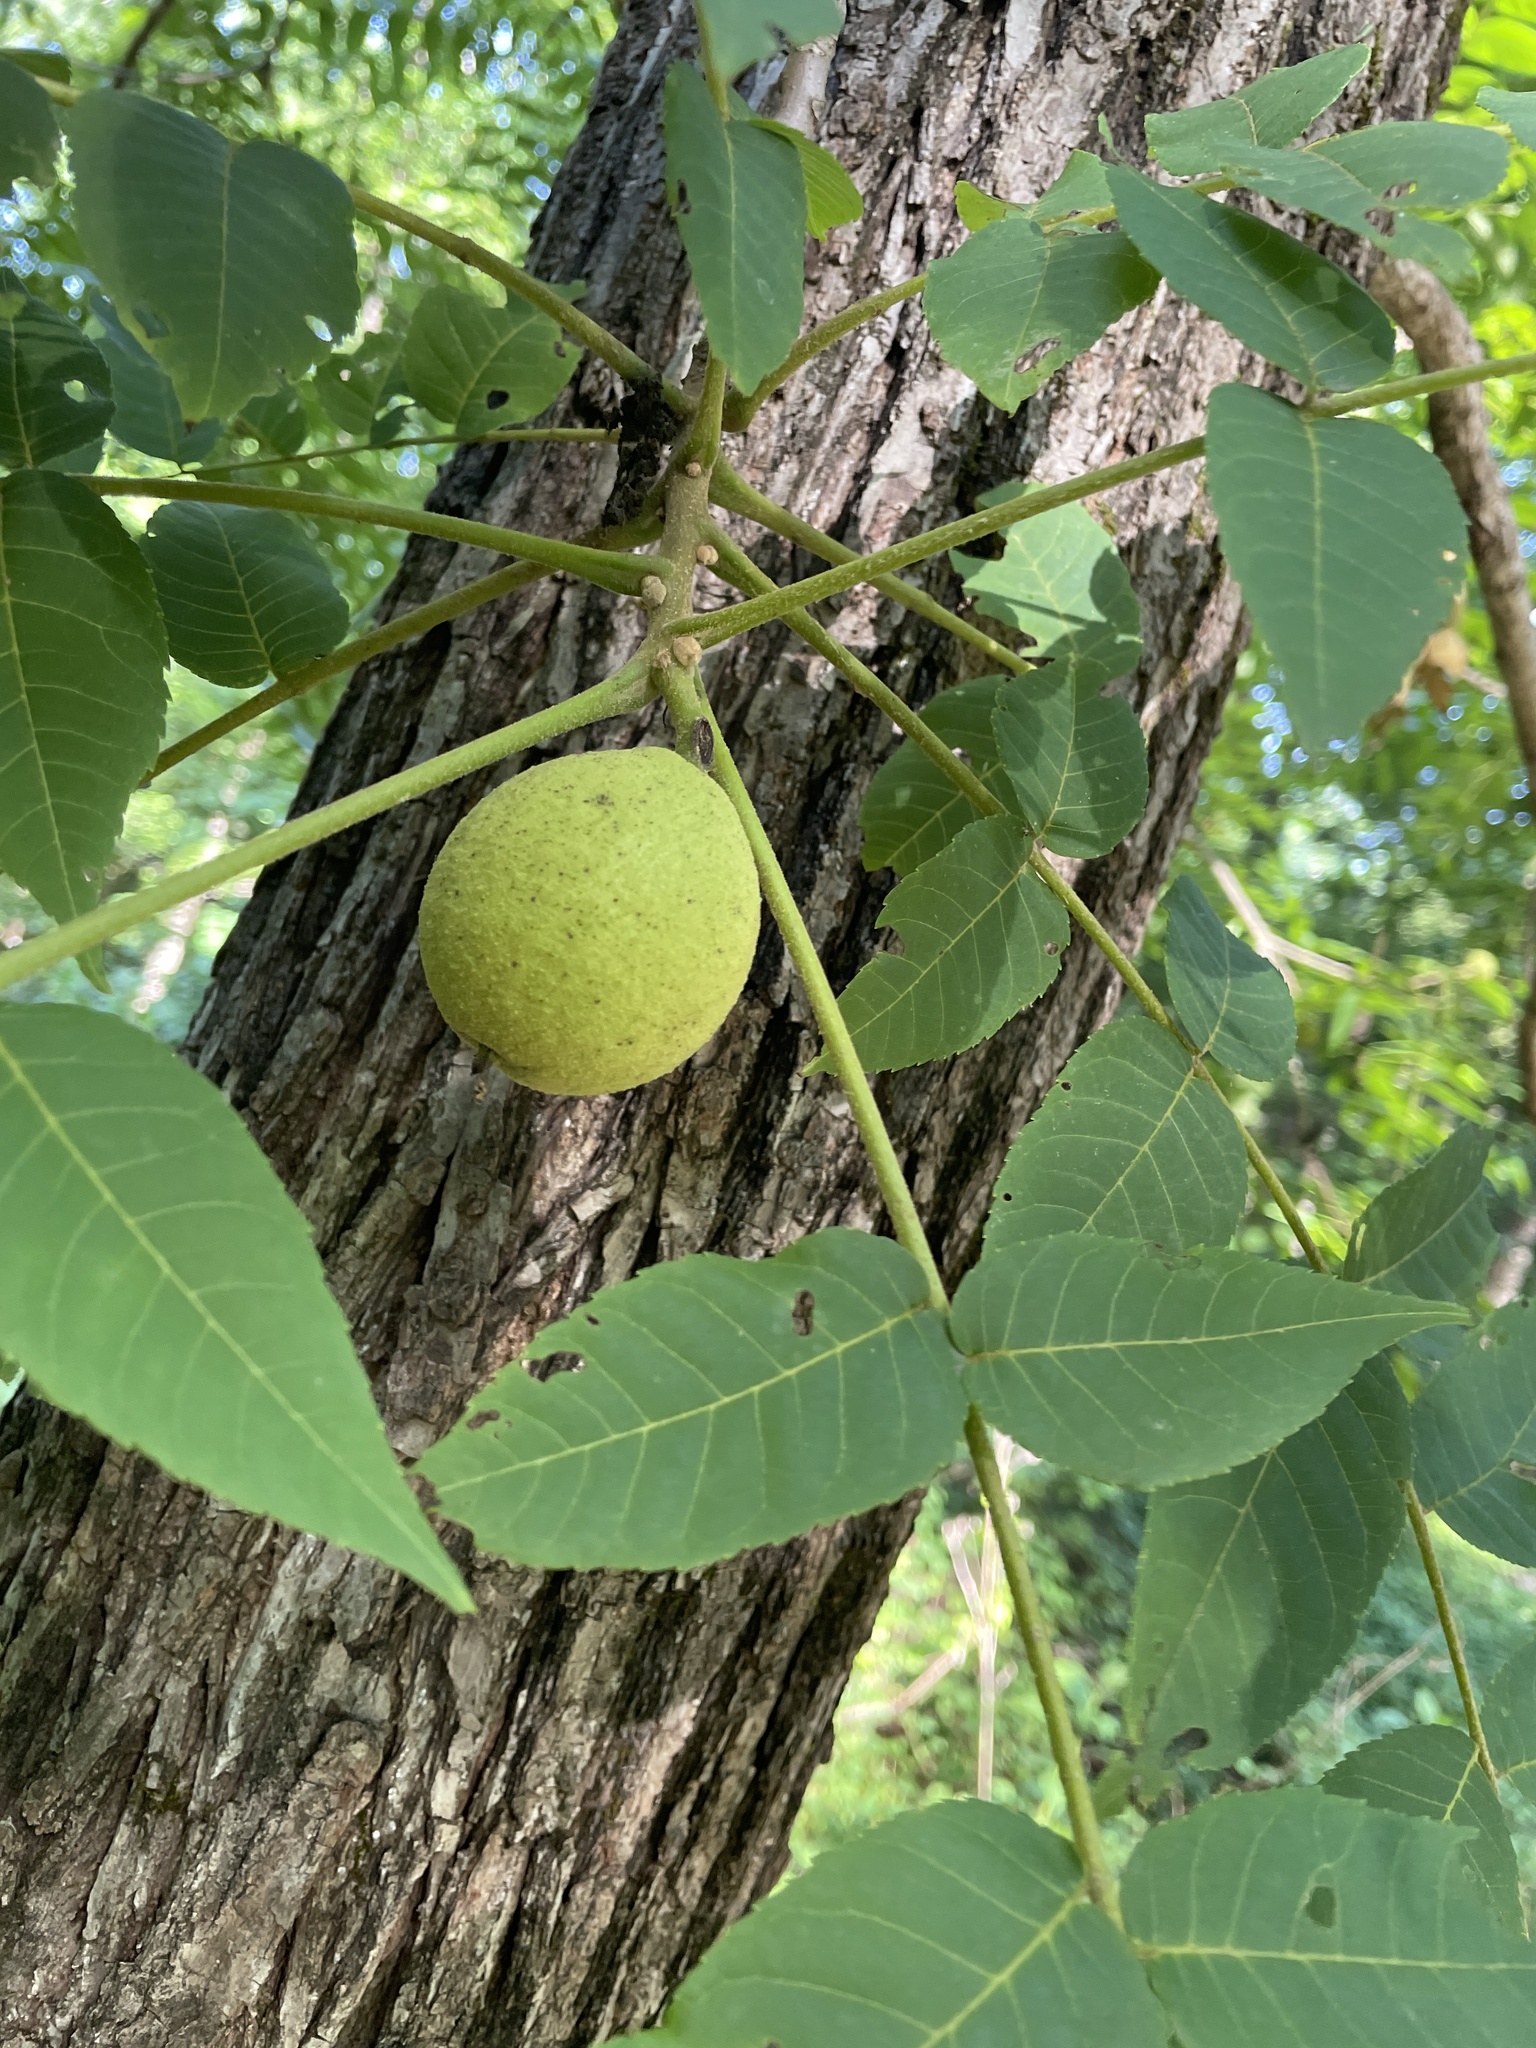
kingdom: Plantae
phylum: Tracheophyta
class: Magnoliopsida
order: Fagales
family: Juglandaceae
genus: Juglans
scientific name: Juglans nigra
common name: Black walnut
